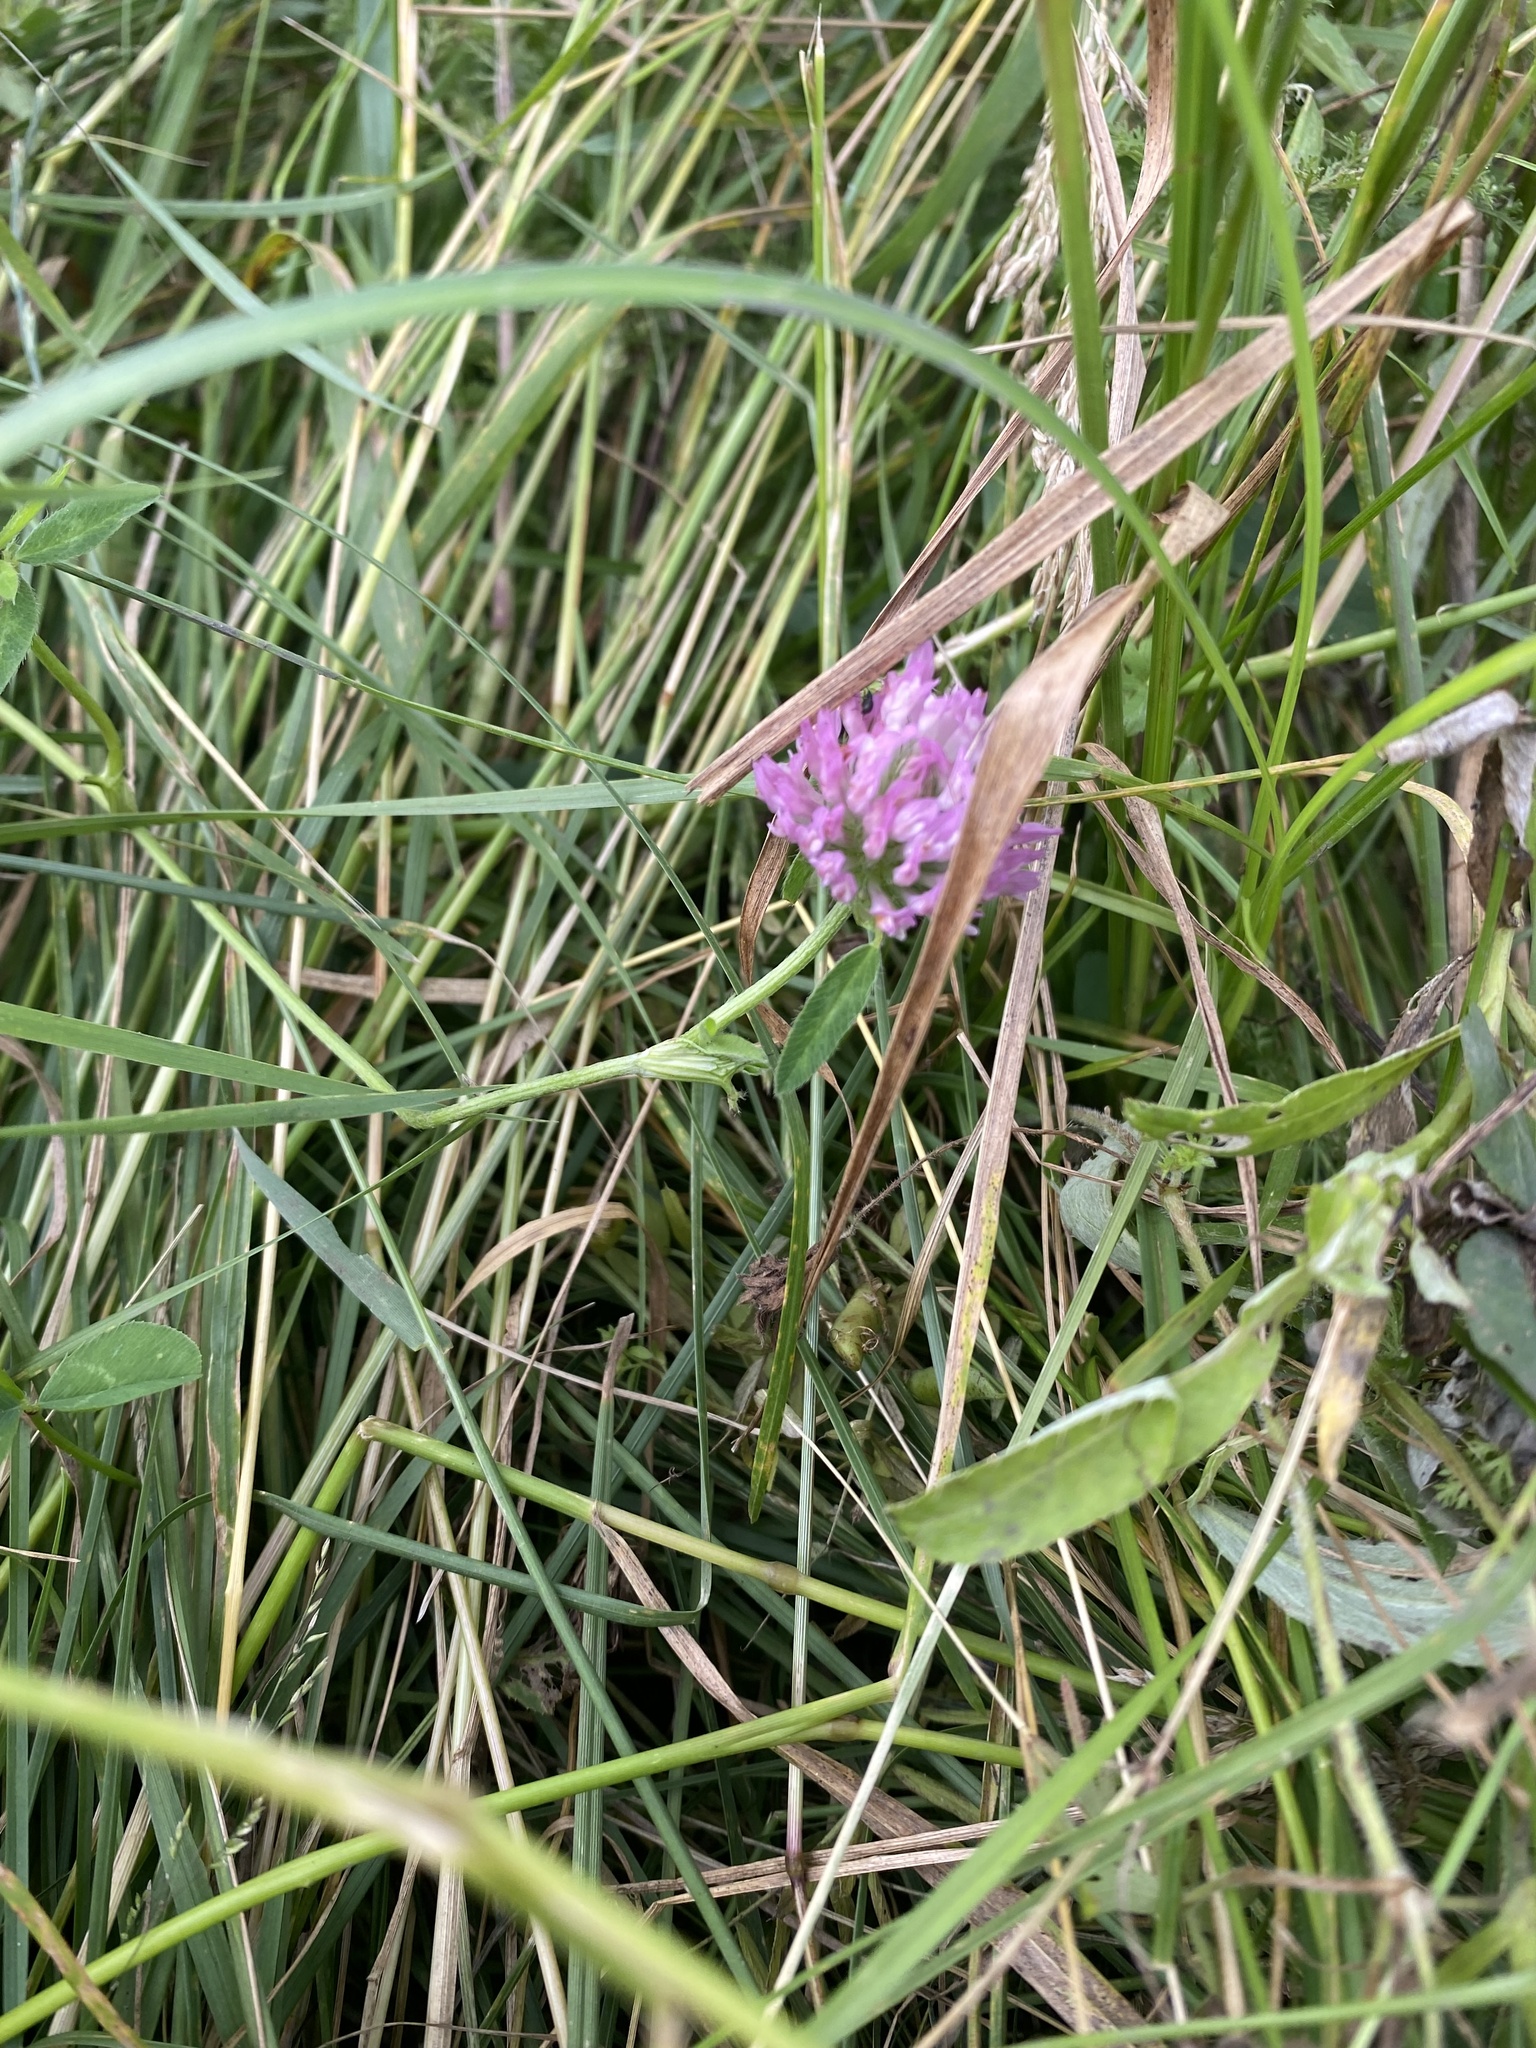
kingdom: Plantae
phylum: Tracheophyta
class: Magnoliopsida
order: Fabales
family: Fabaceae
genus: Trifolium
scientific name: Trifolium pratense
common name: Red clover
